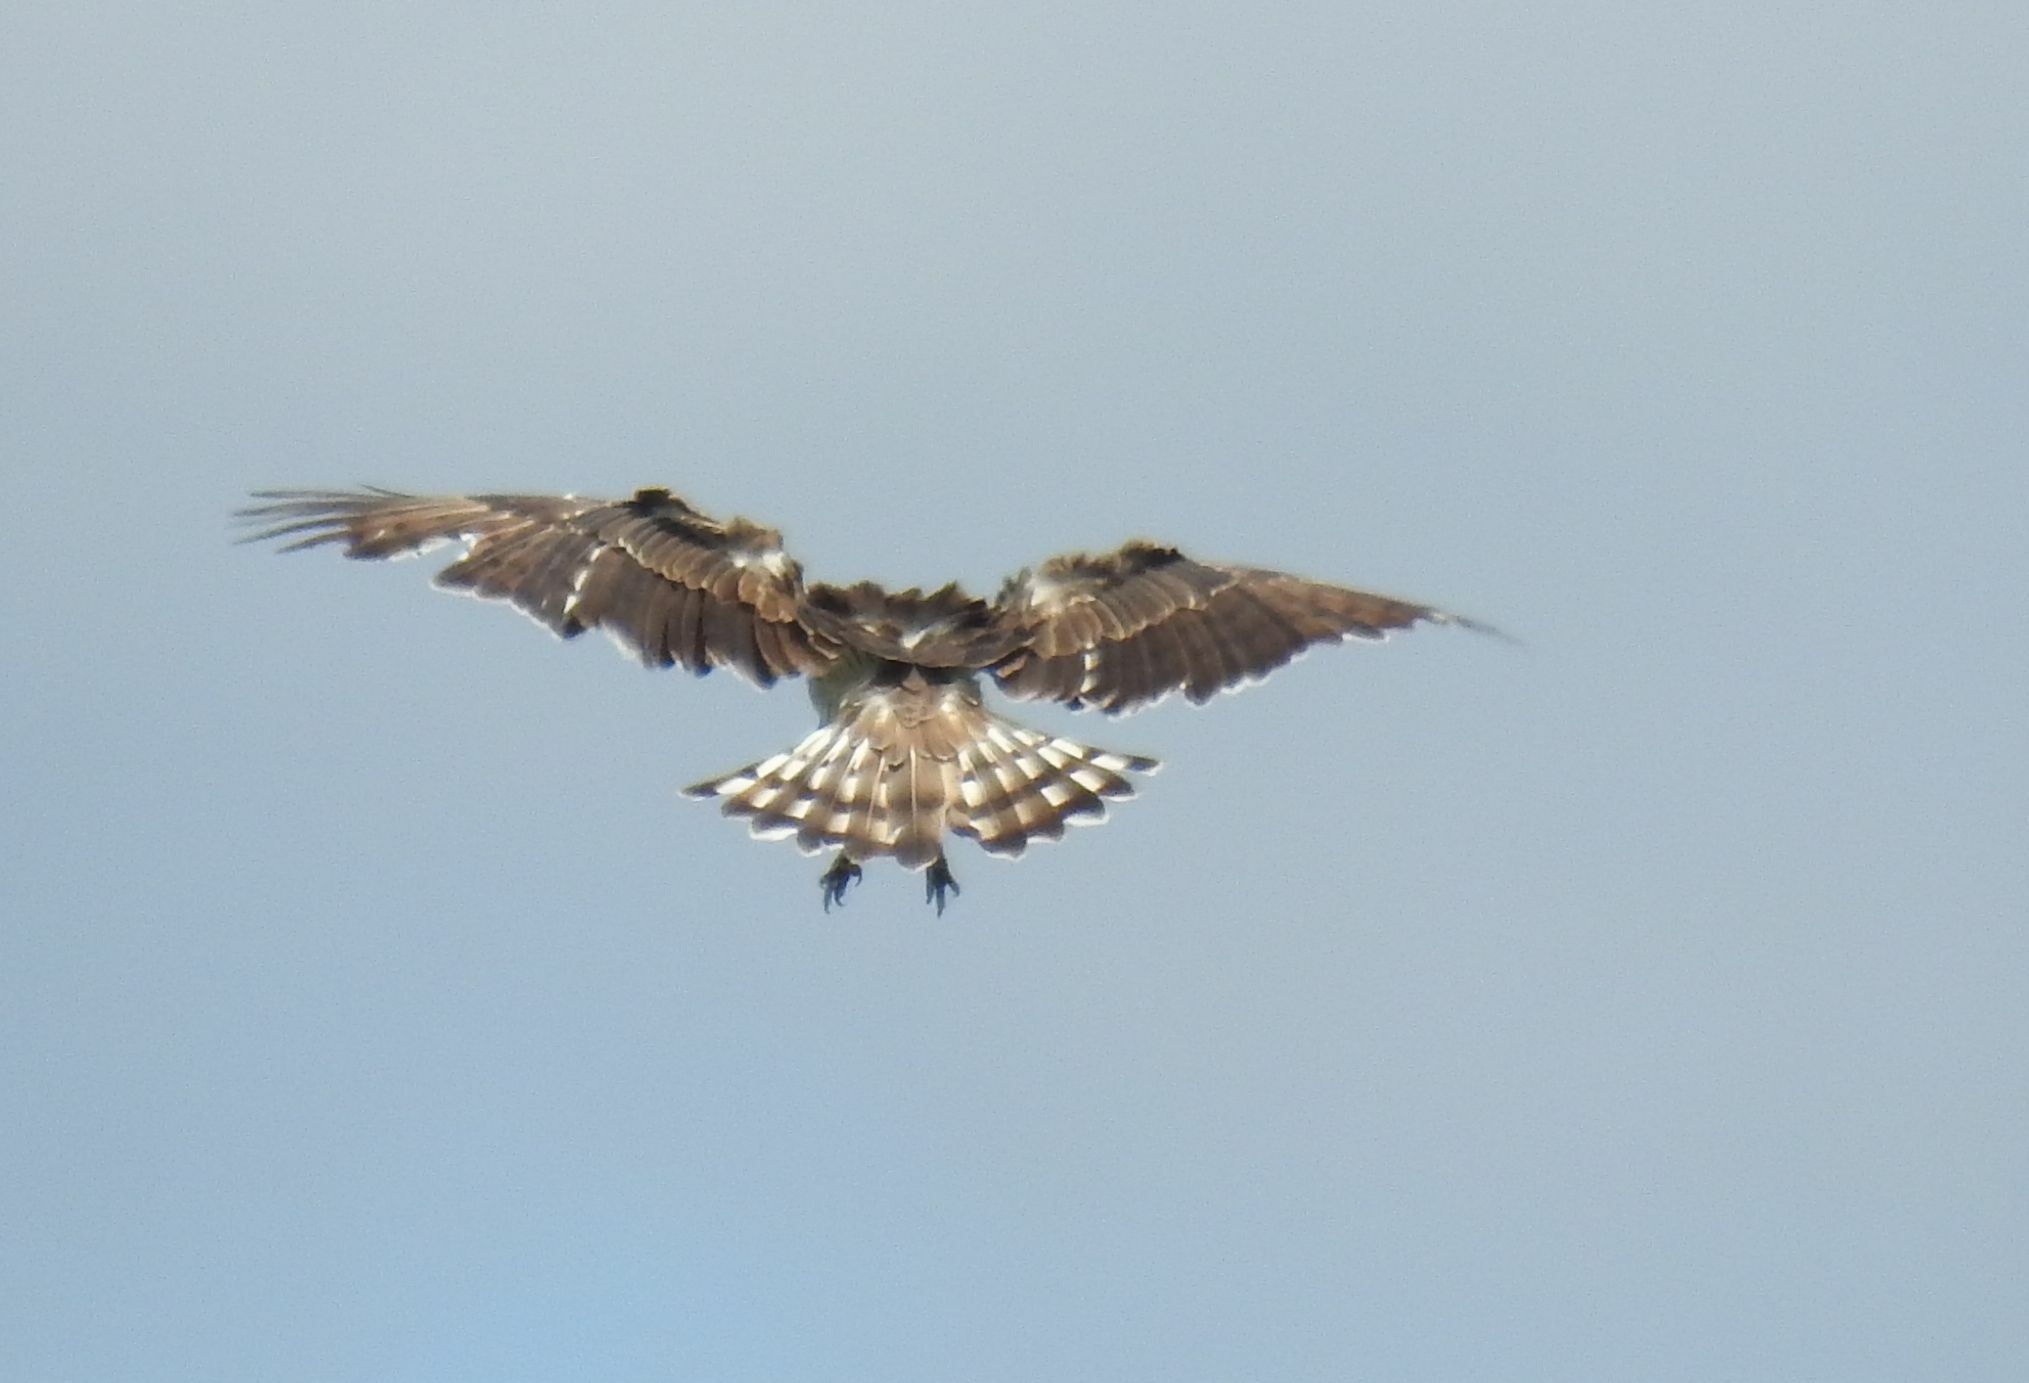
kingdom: Animalia
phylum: Chordata
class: Aves
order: Accipitriformes
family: Accipitridae
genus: Circaetus
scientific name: Circaetus gallicus
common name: Short-toed snake eagle
